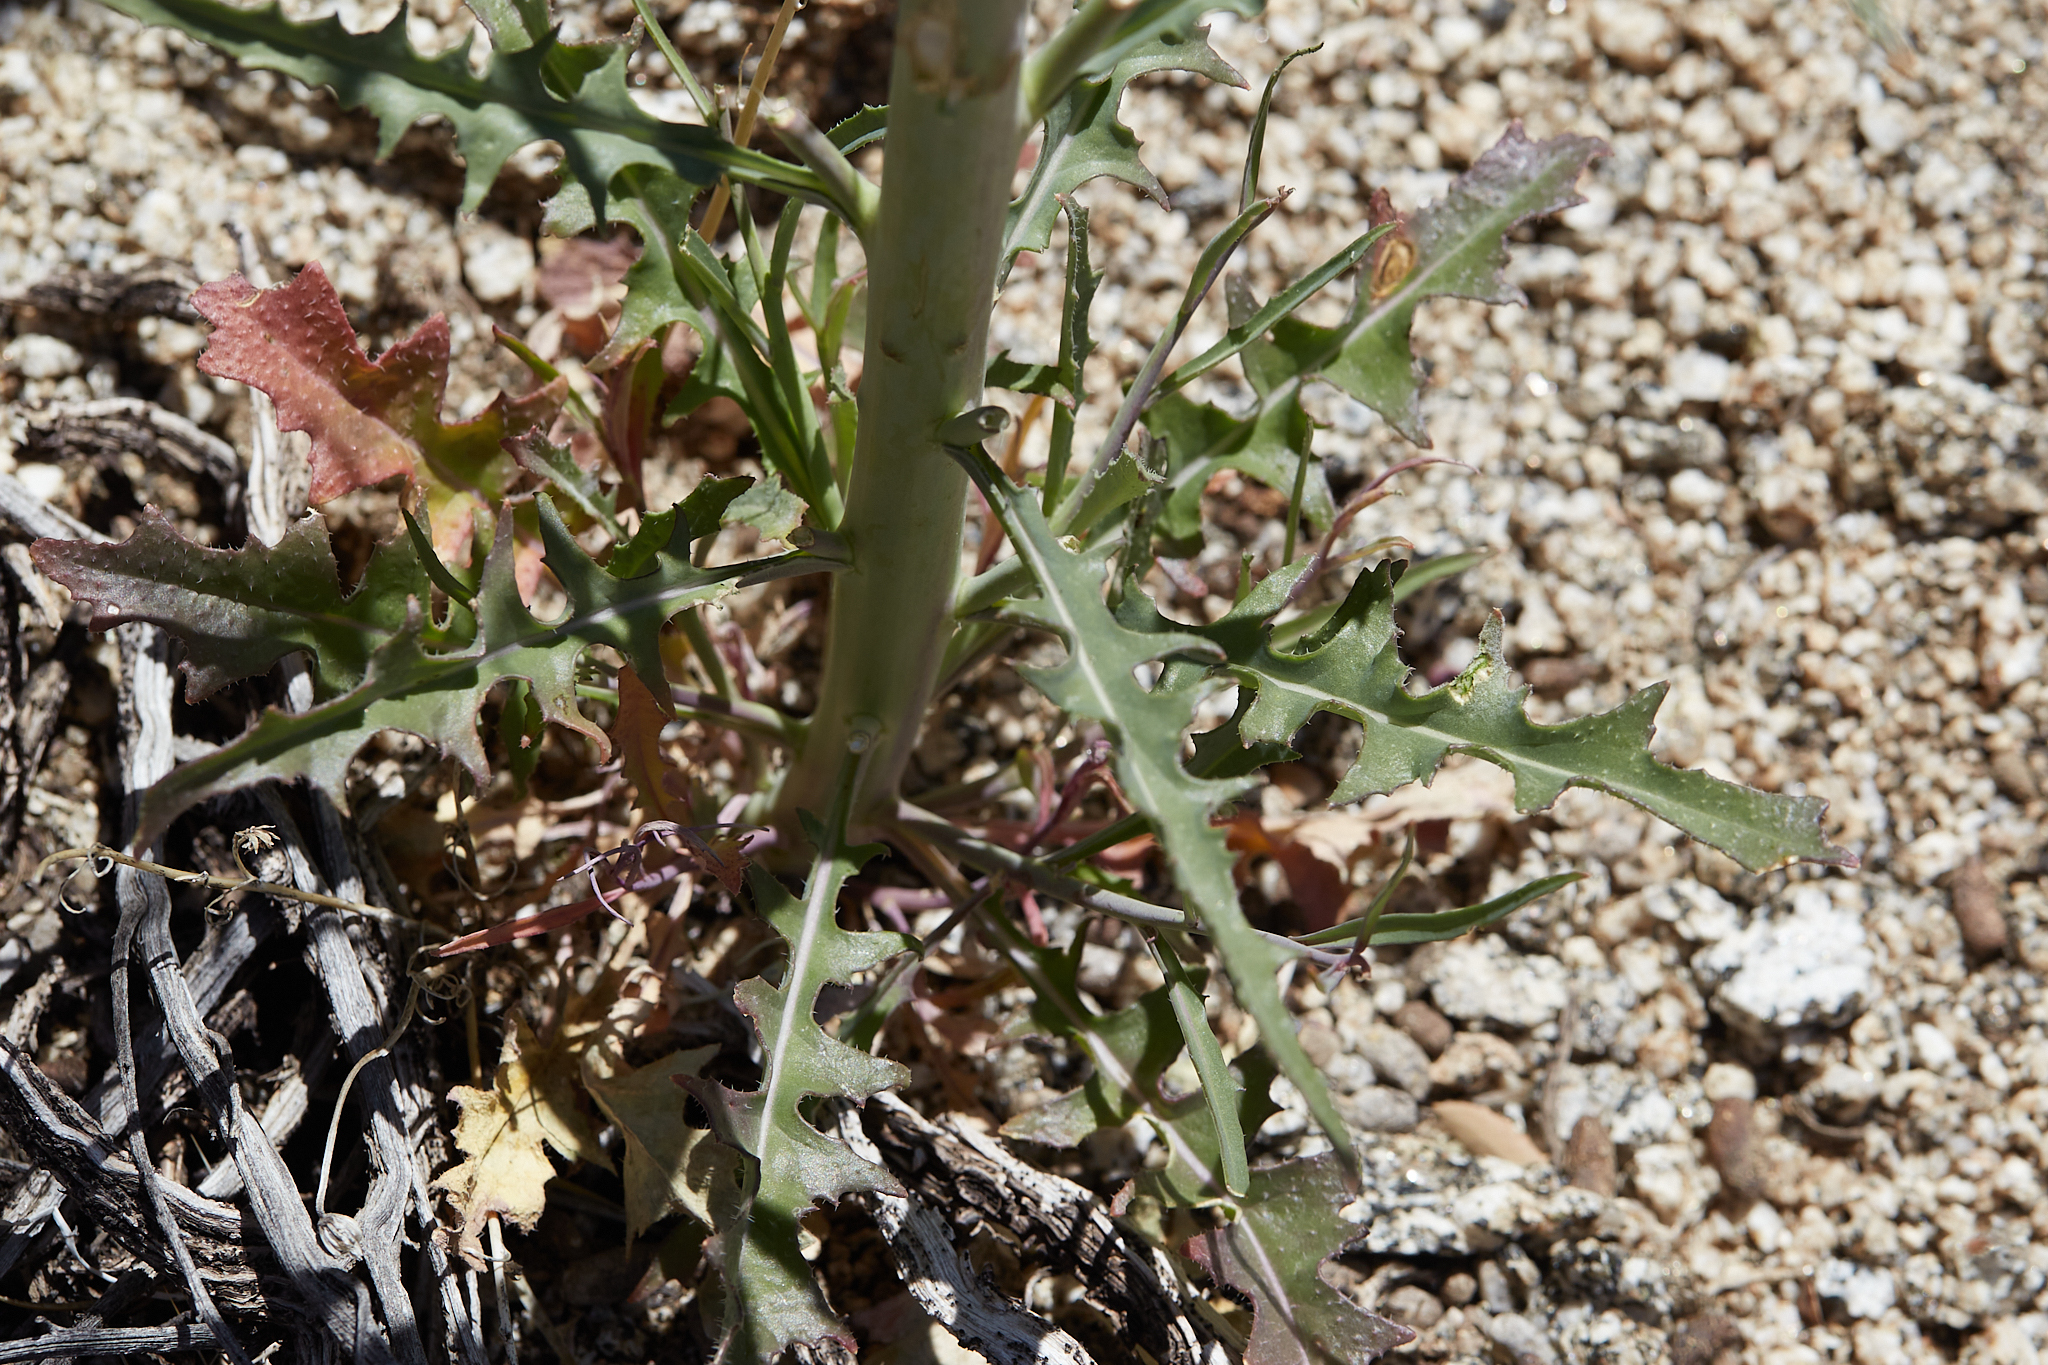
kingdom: Plantae
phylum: Tracheophyta
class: Magnoliopsida
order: Brassicales
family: Brassicaceae
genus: Streptanthus
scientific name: Streptanthus hallii
